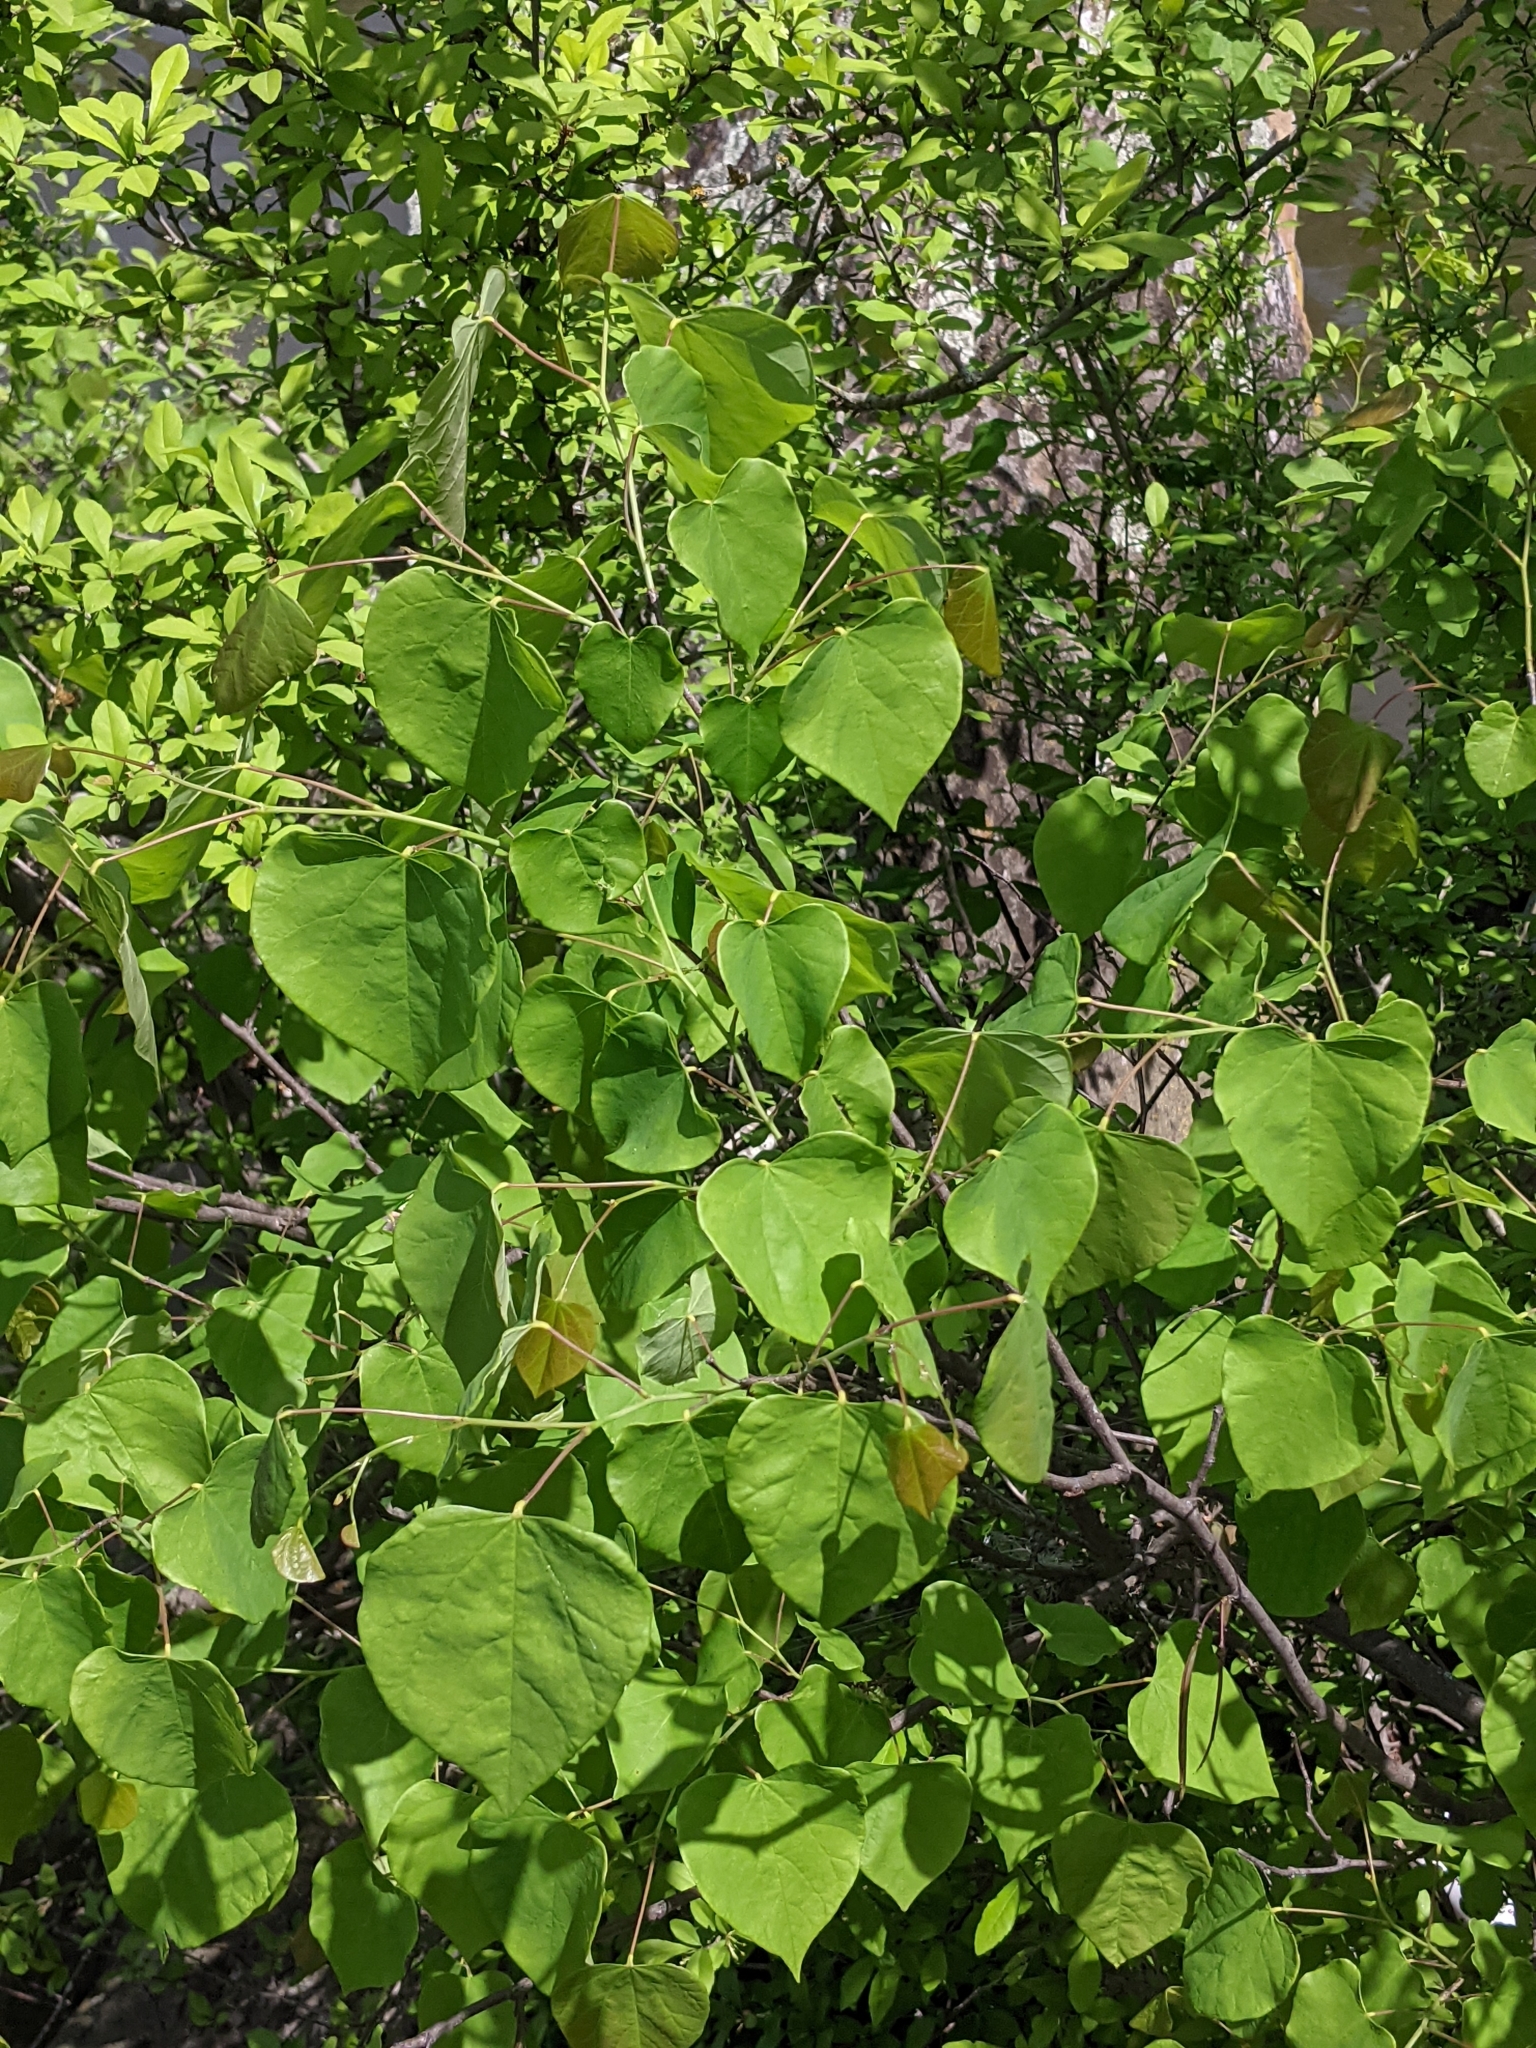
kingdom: Plantae
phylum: Tracheophyta
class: Magnoliopsida
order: Fabales
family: Fabaceae
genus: Cercis
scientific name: Cercis canadensis
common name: Eastern redbud
